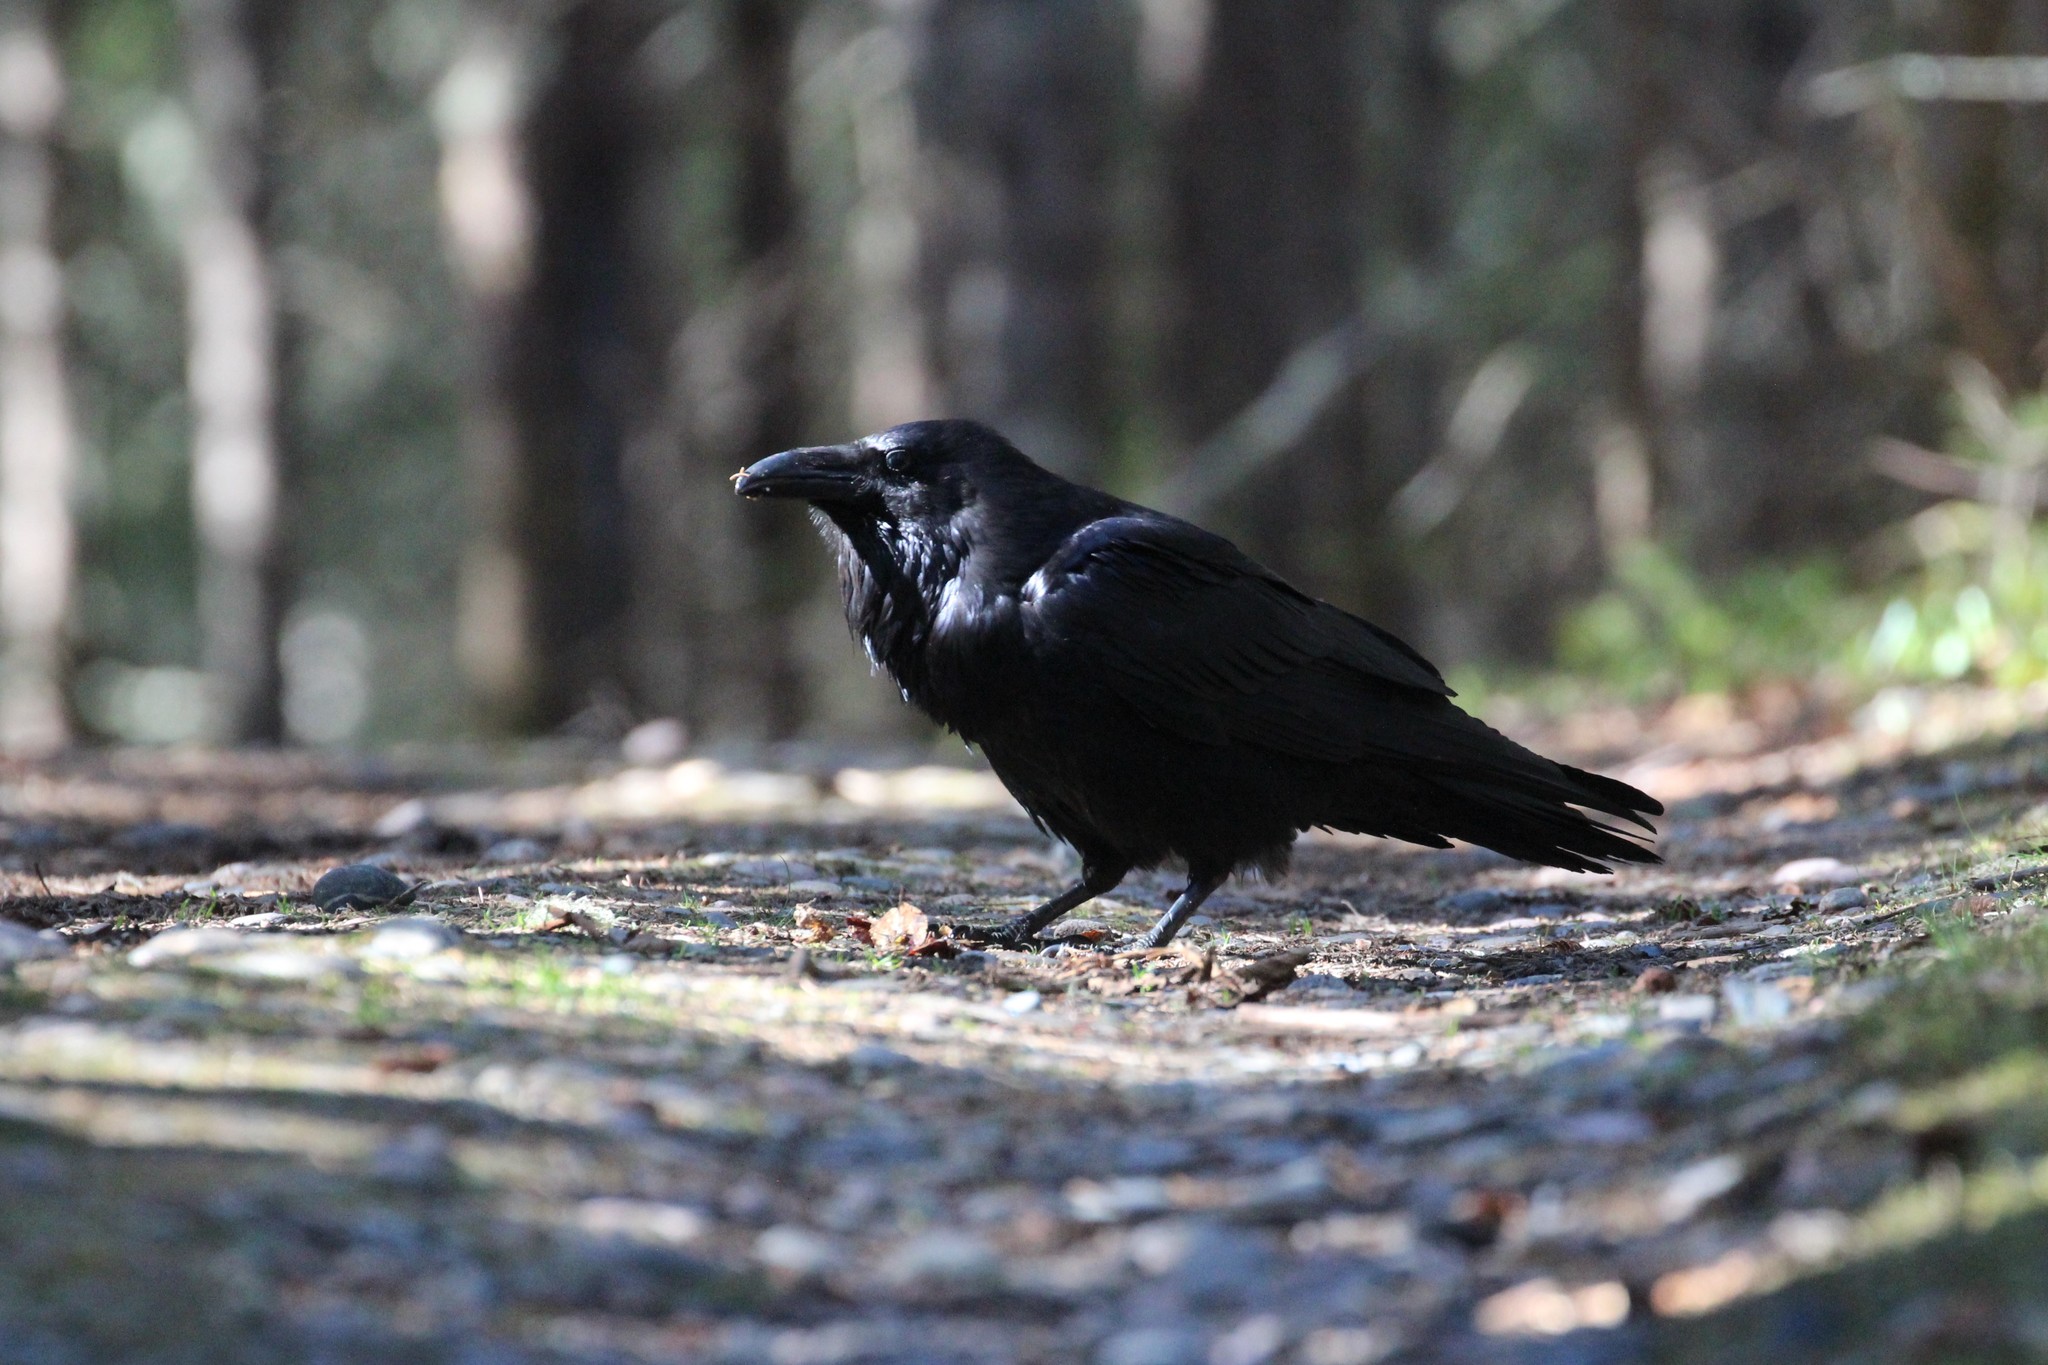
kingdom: Animalia
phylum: Chordata
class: Aves
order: Passeriformes
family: Corvidae
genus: Corvus
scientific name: Corvus corax
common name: Common raven
